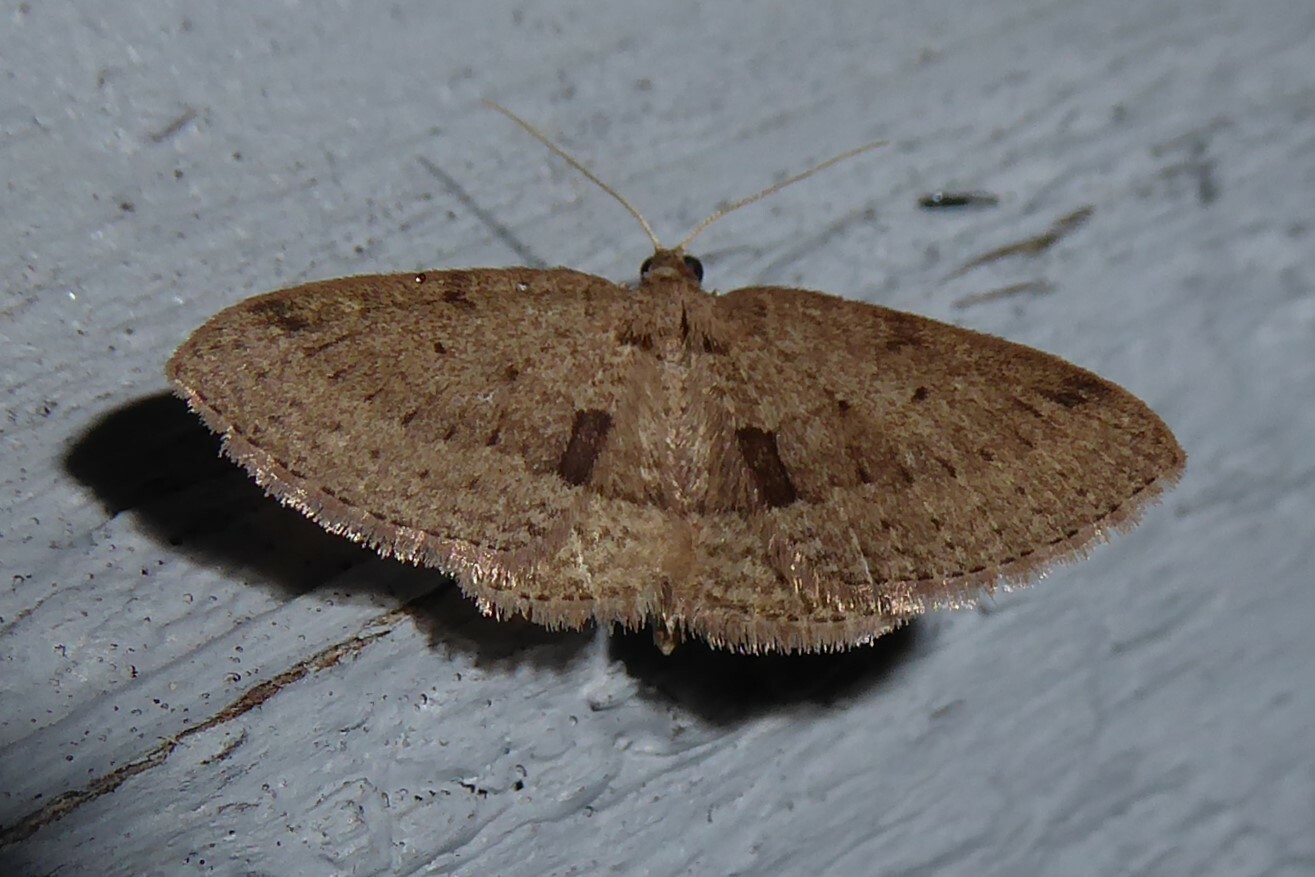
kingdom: Animalia
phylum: Arthropoda
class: Insecta
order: Lepidoptera
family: Geometridae
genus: Poecilasthena
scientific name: Poecilasthena schistaria
